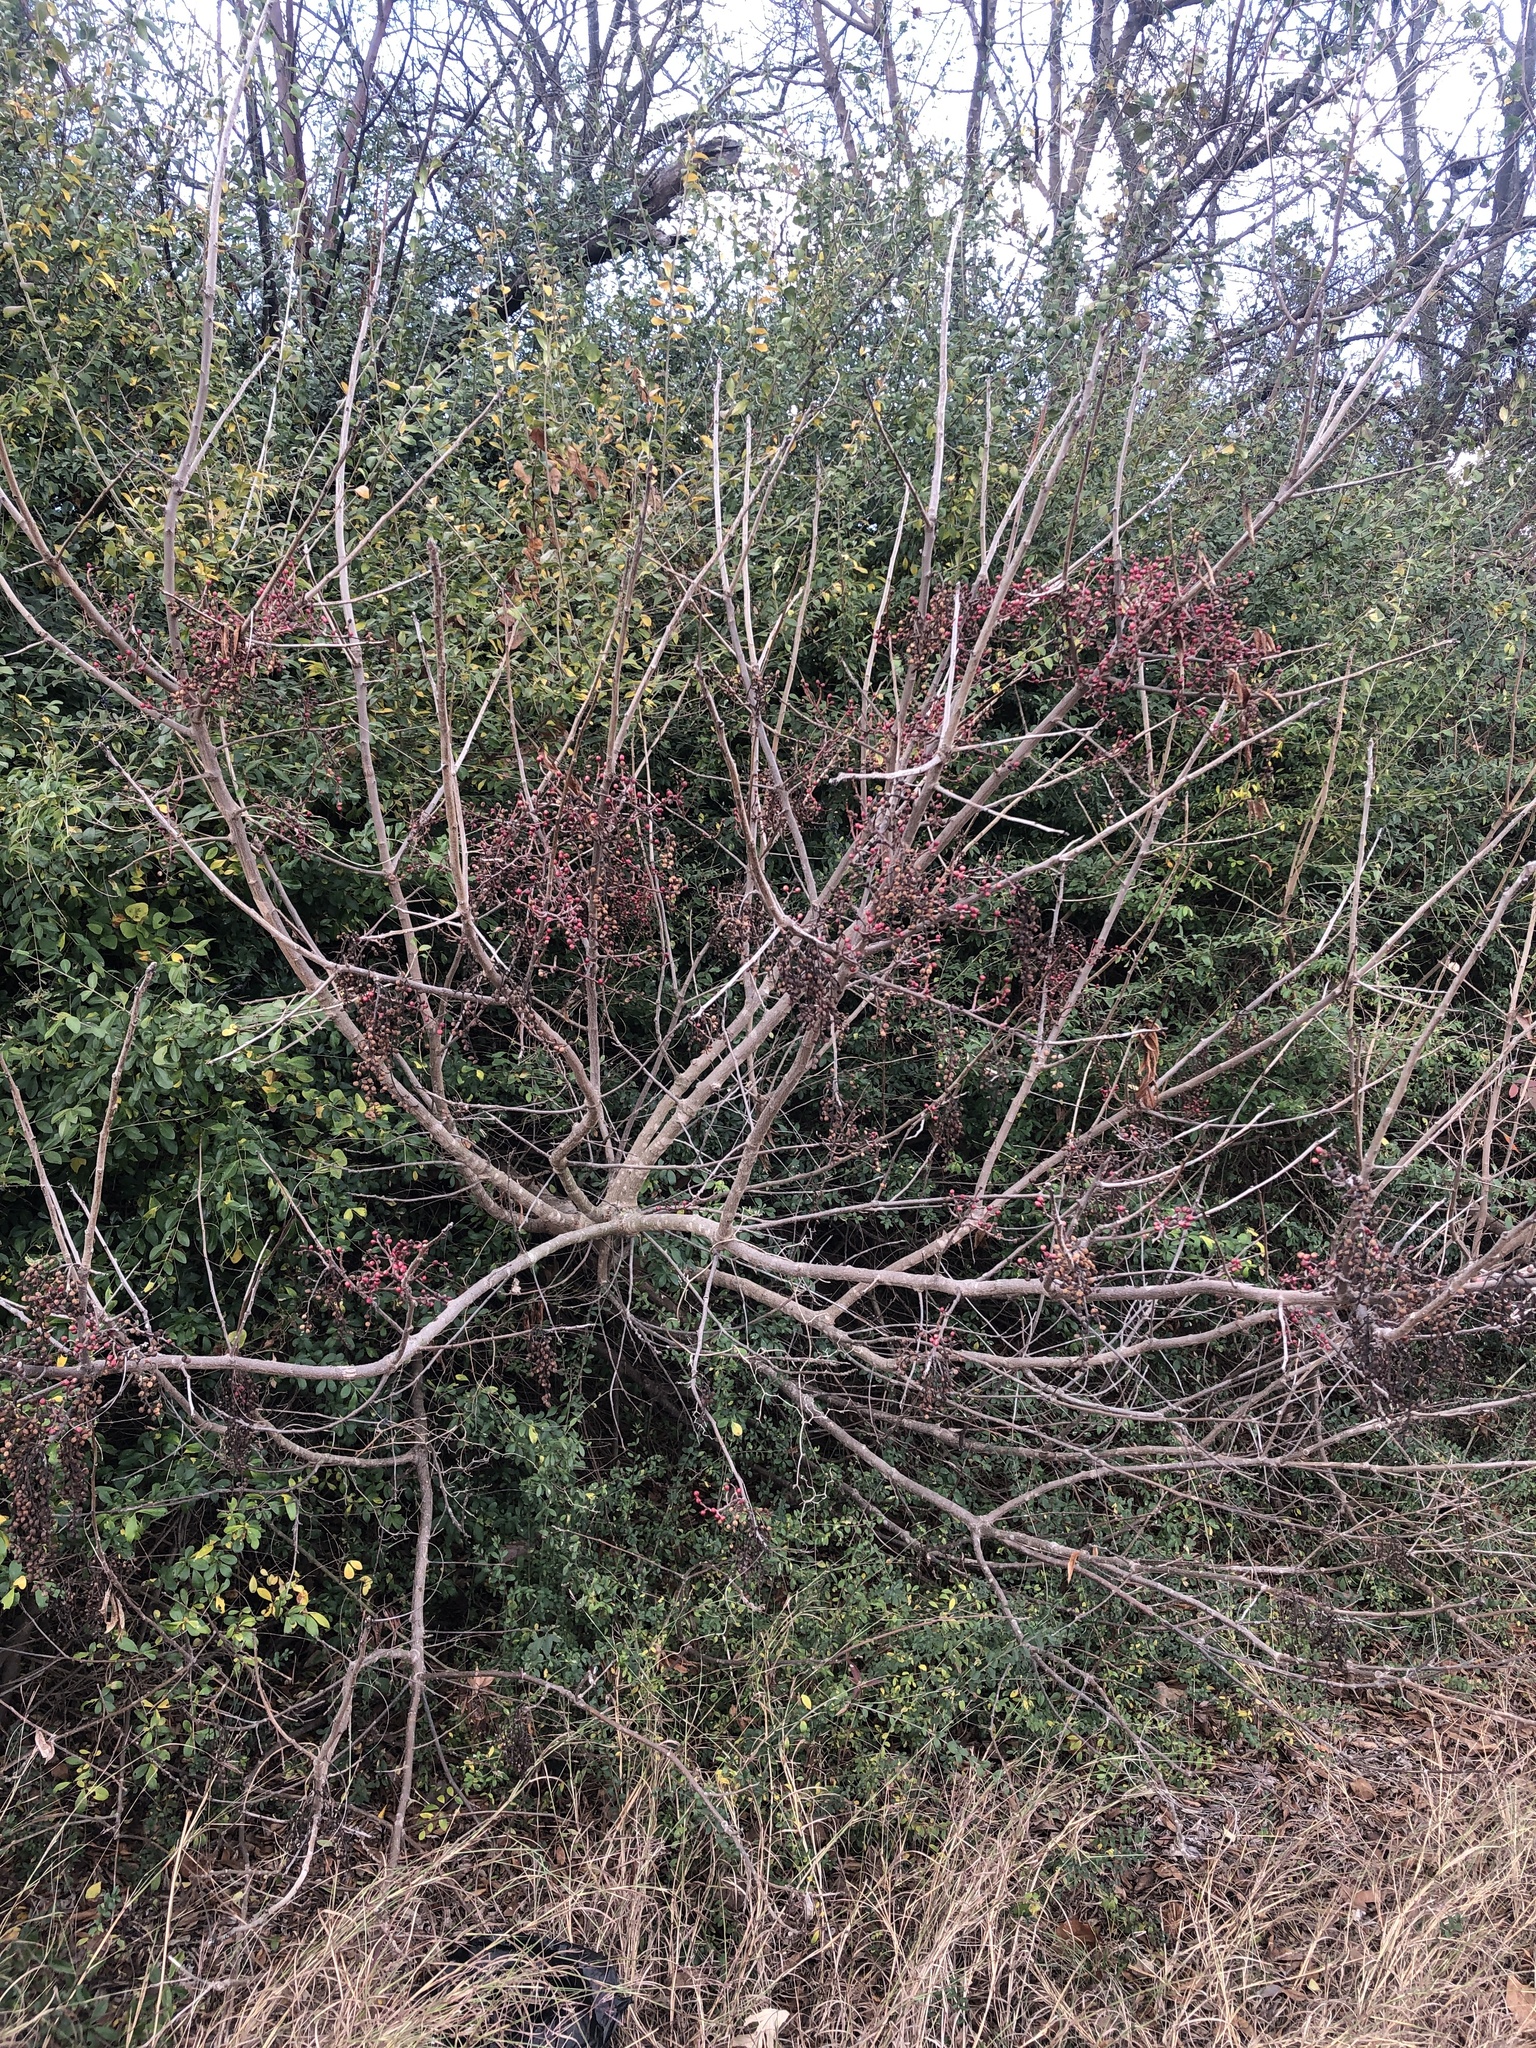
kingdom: Plantae
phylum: Tracheophyta
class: Magnoliopsida
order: Sapindales
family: Anacardiaceae
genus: Pistacia
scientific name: Pistacia chinensis
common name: Chinese pistache
